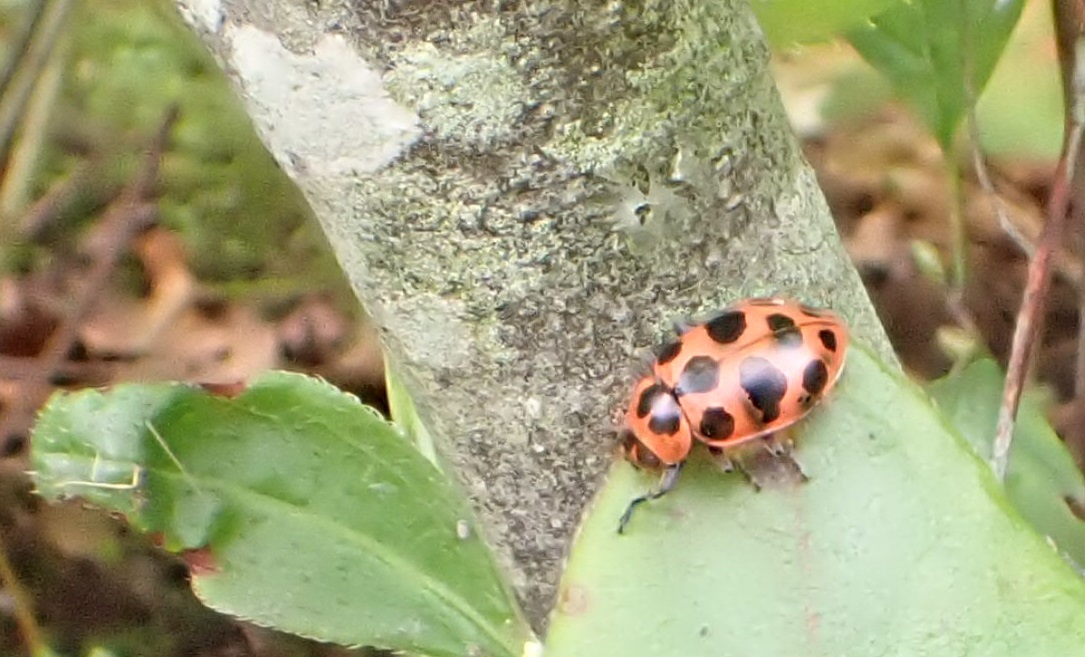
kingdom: Animalia
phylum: Arthropoda
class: Insecta
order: Coleoptera
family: Coccinellidae
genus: Coleomegilla
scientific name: Coleomegilla maculata
